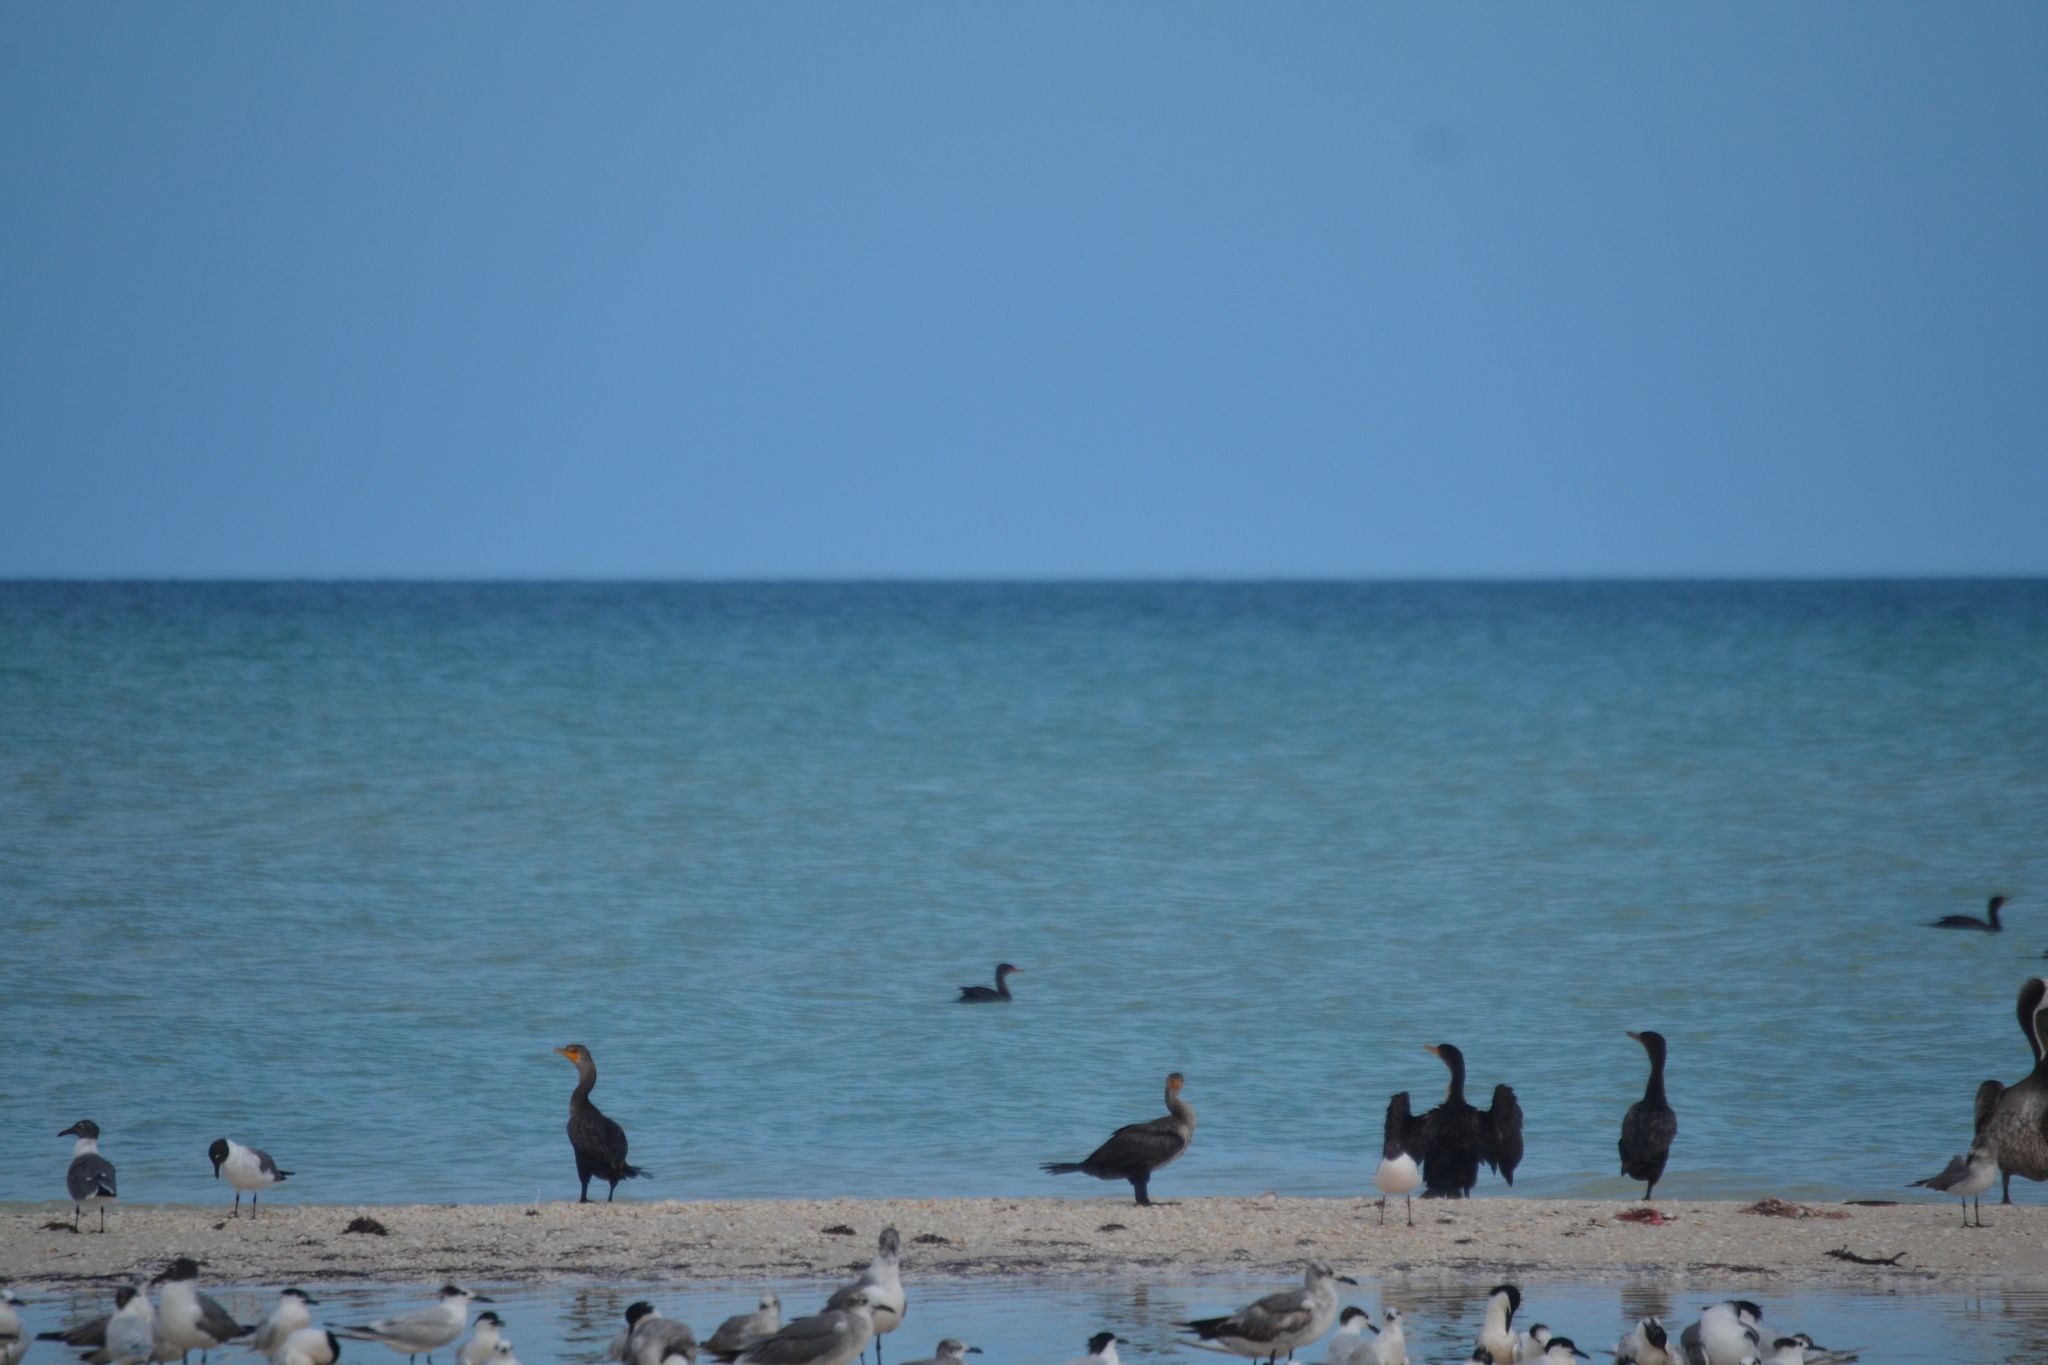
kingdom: Animalia
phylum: Chordata
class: Aves
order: Suliformes
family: Phalacrocoracidae
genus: Phalacrocorax
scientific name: Phalacrocorax auritus
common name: Double-crested cormorant
